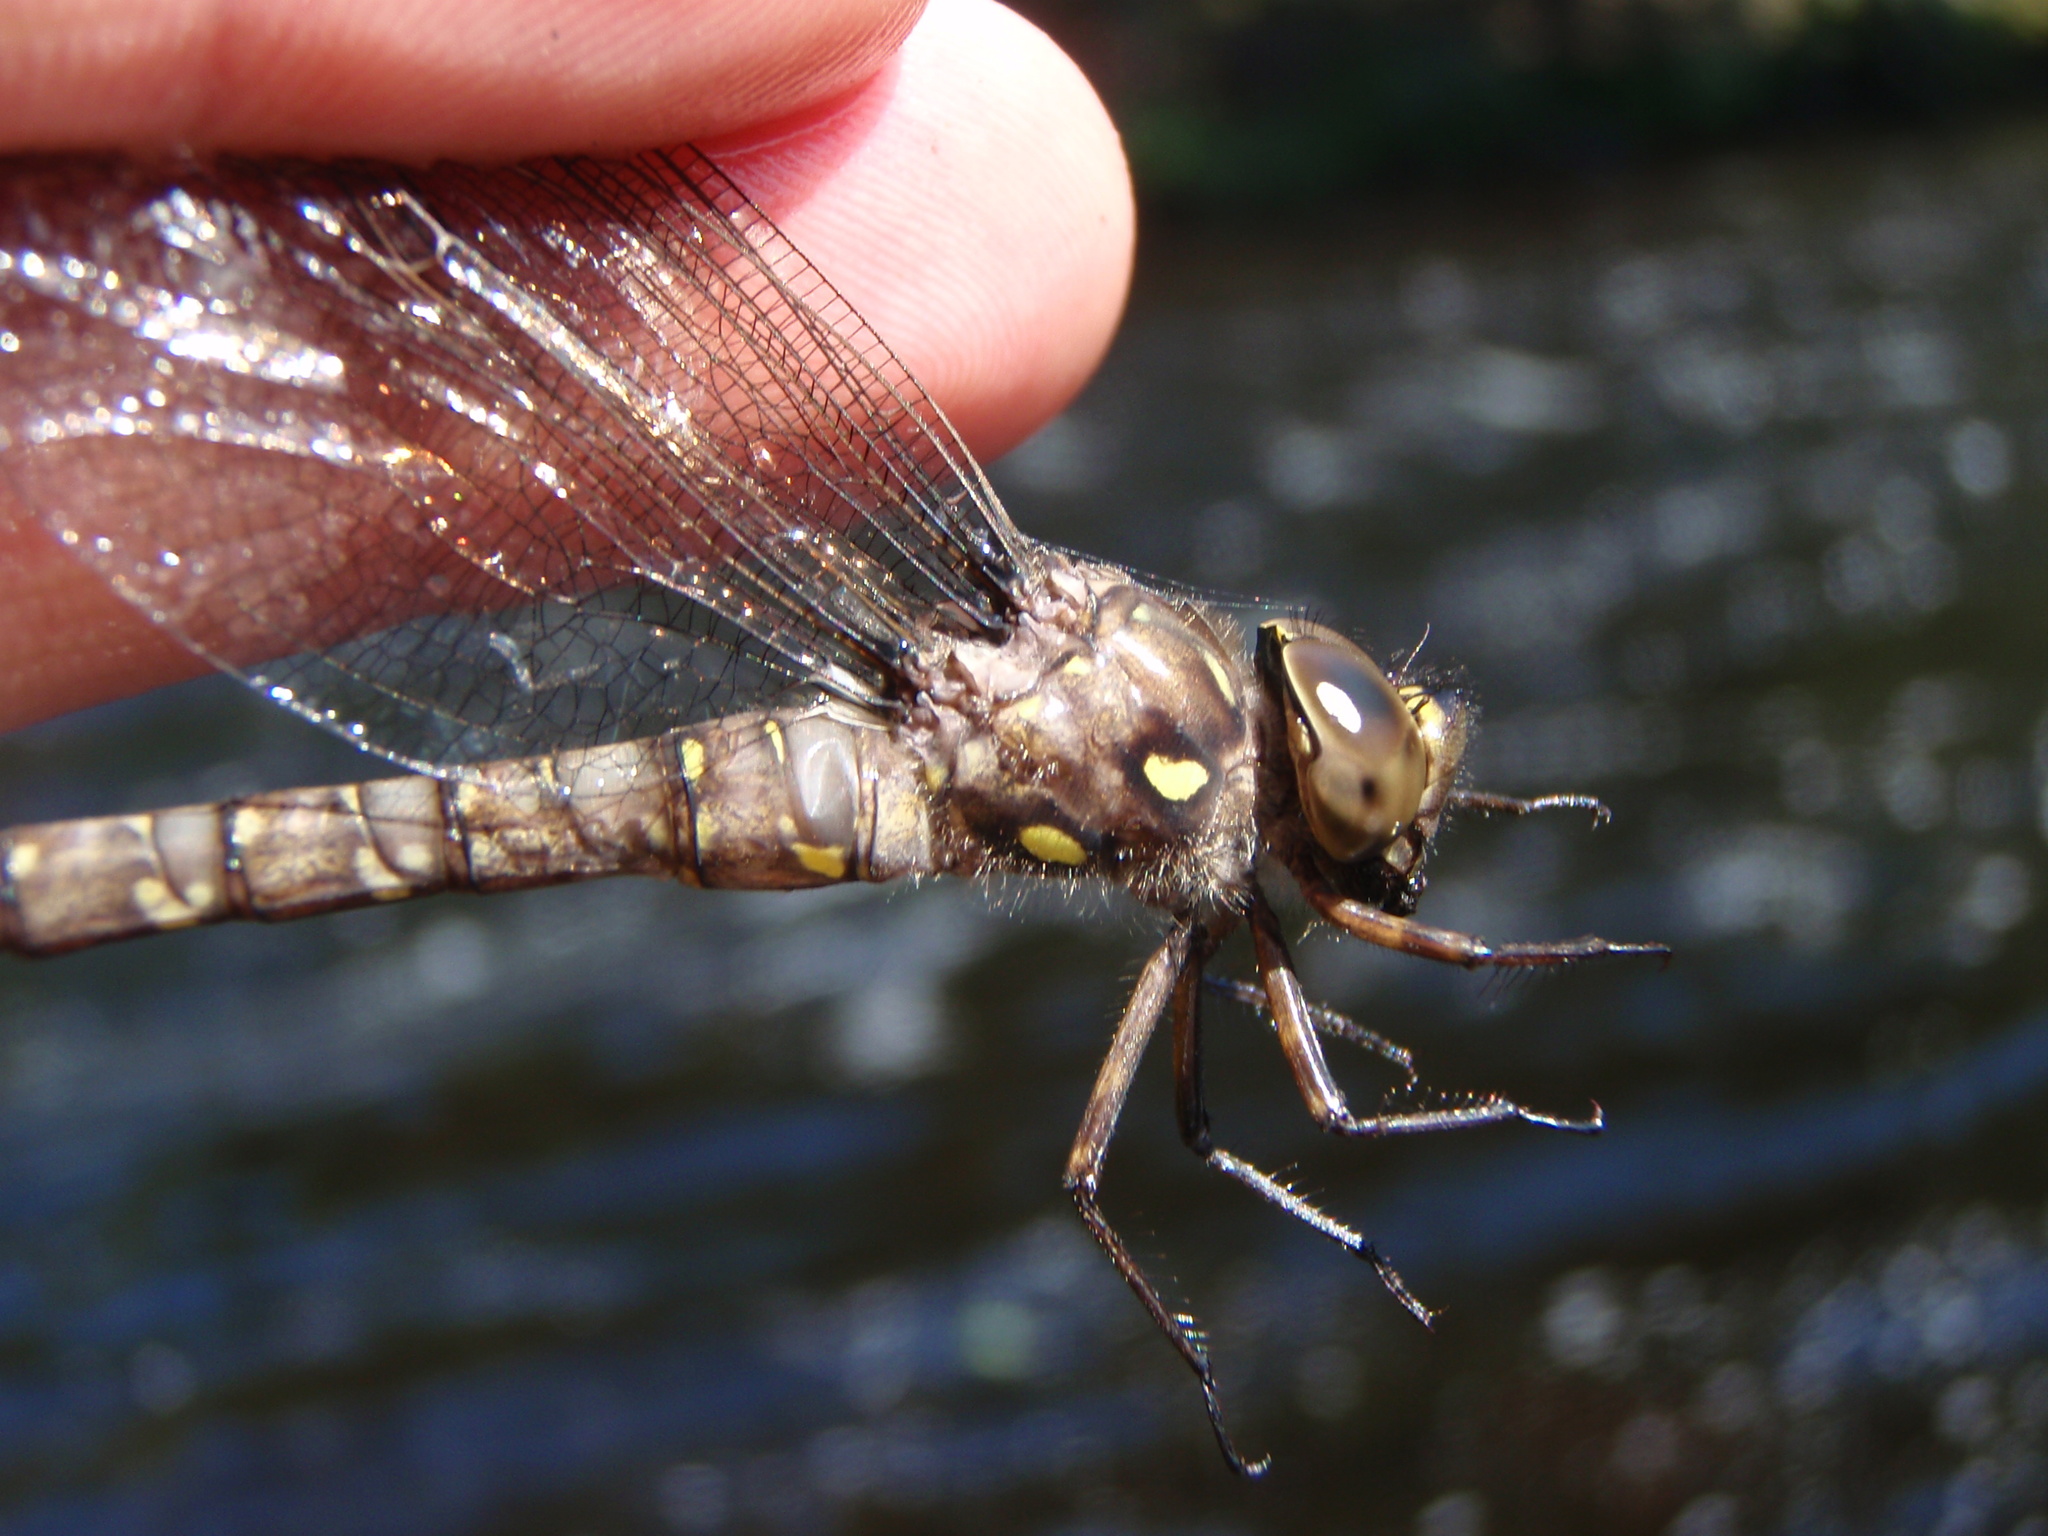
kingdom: Animalia
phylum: Arthropoda
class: Insecta
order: Odonata
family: Aeshnidae
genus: Boyeria
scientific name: Boyeria grafiana
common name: Ocellated darner
